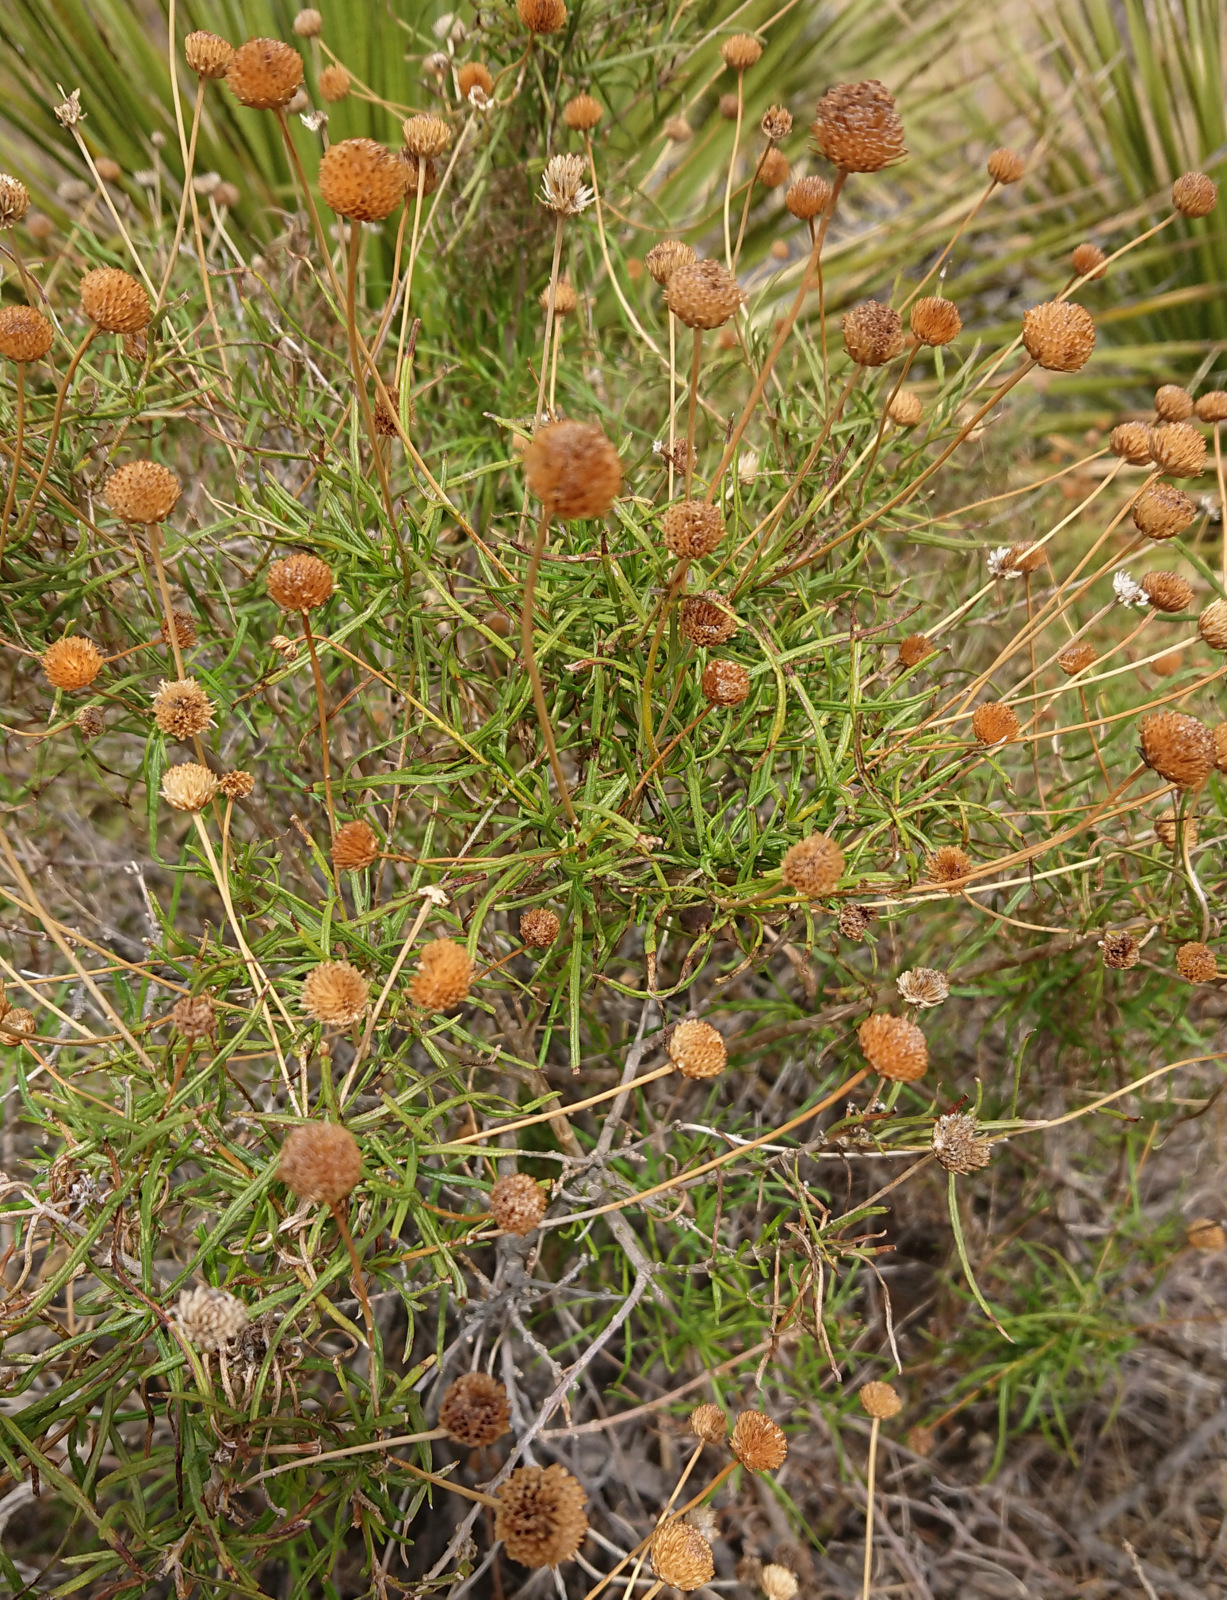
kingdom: Plantae
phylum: Tracheophyta
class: Magnoliopsida
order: Asterales
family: Asteraceae
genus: Sidneya
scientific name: Sidneya tenuifolia
